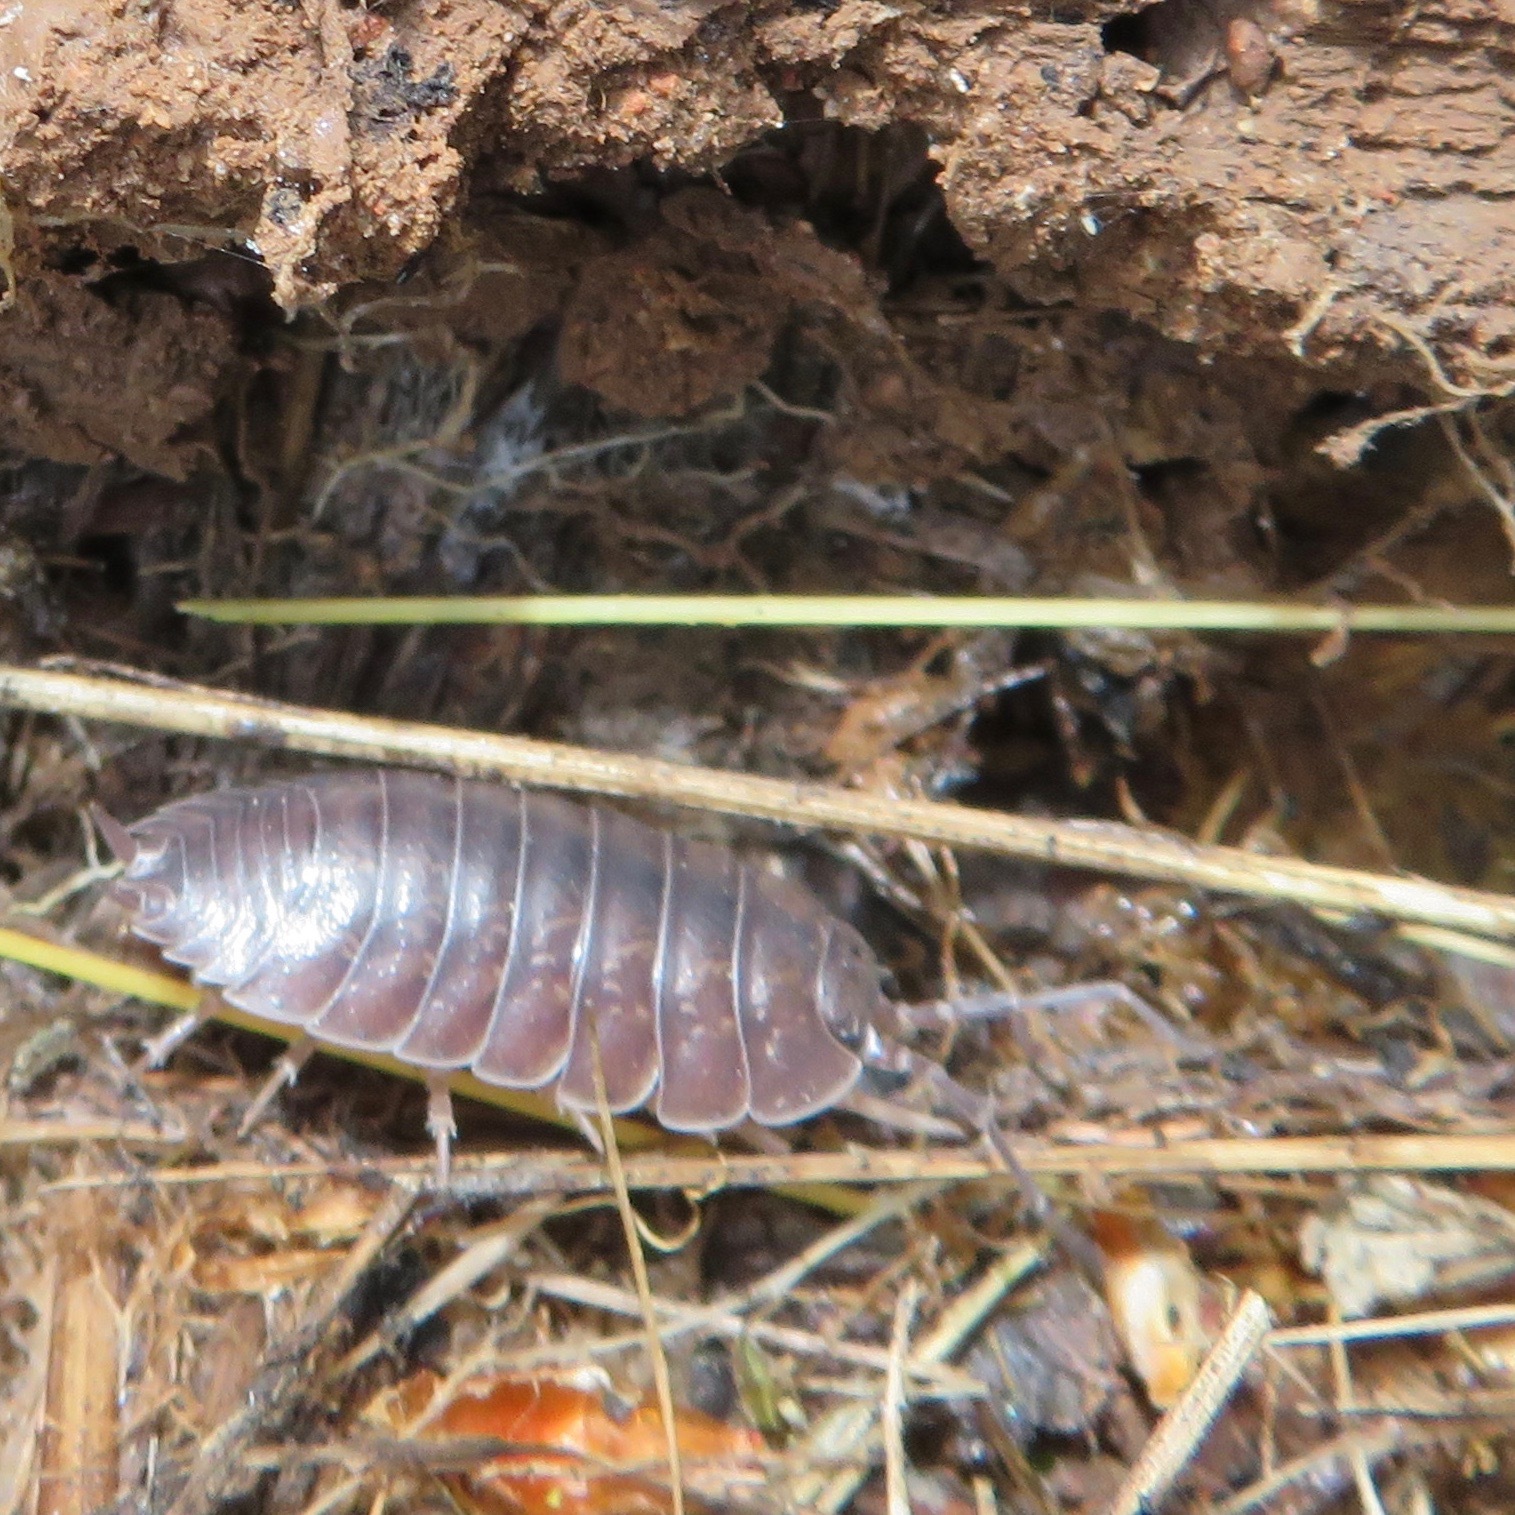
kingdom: Animalia
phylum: Arthropoda
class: Malacostraca
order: Isopoda
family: Porcellionidae
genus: Porcellio
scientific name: Porcellio laevis
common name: Swift woodlouse
